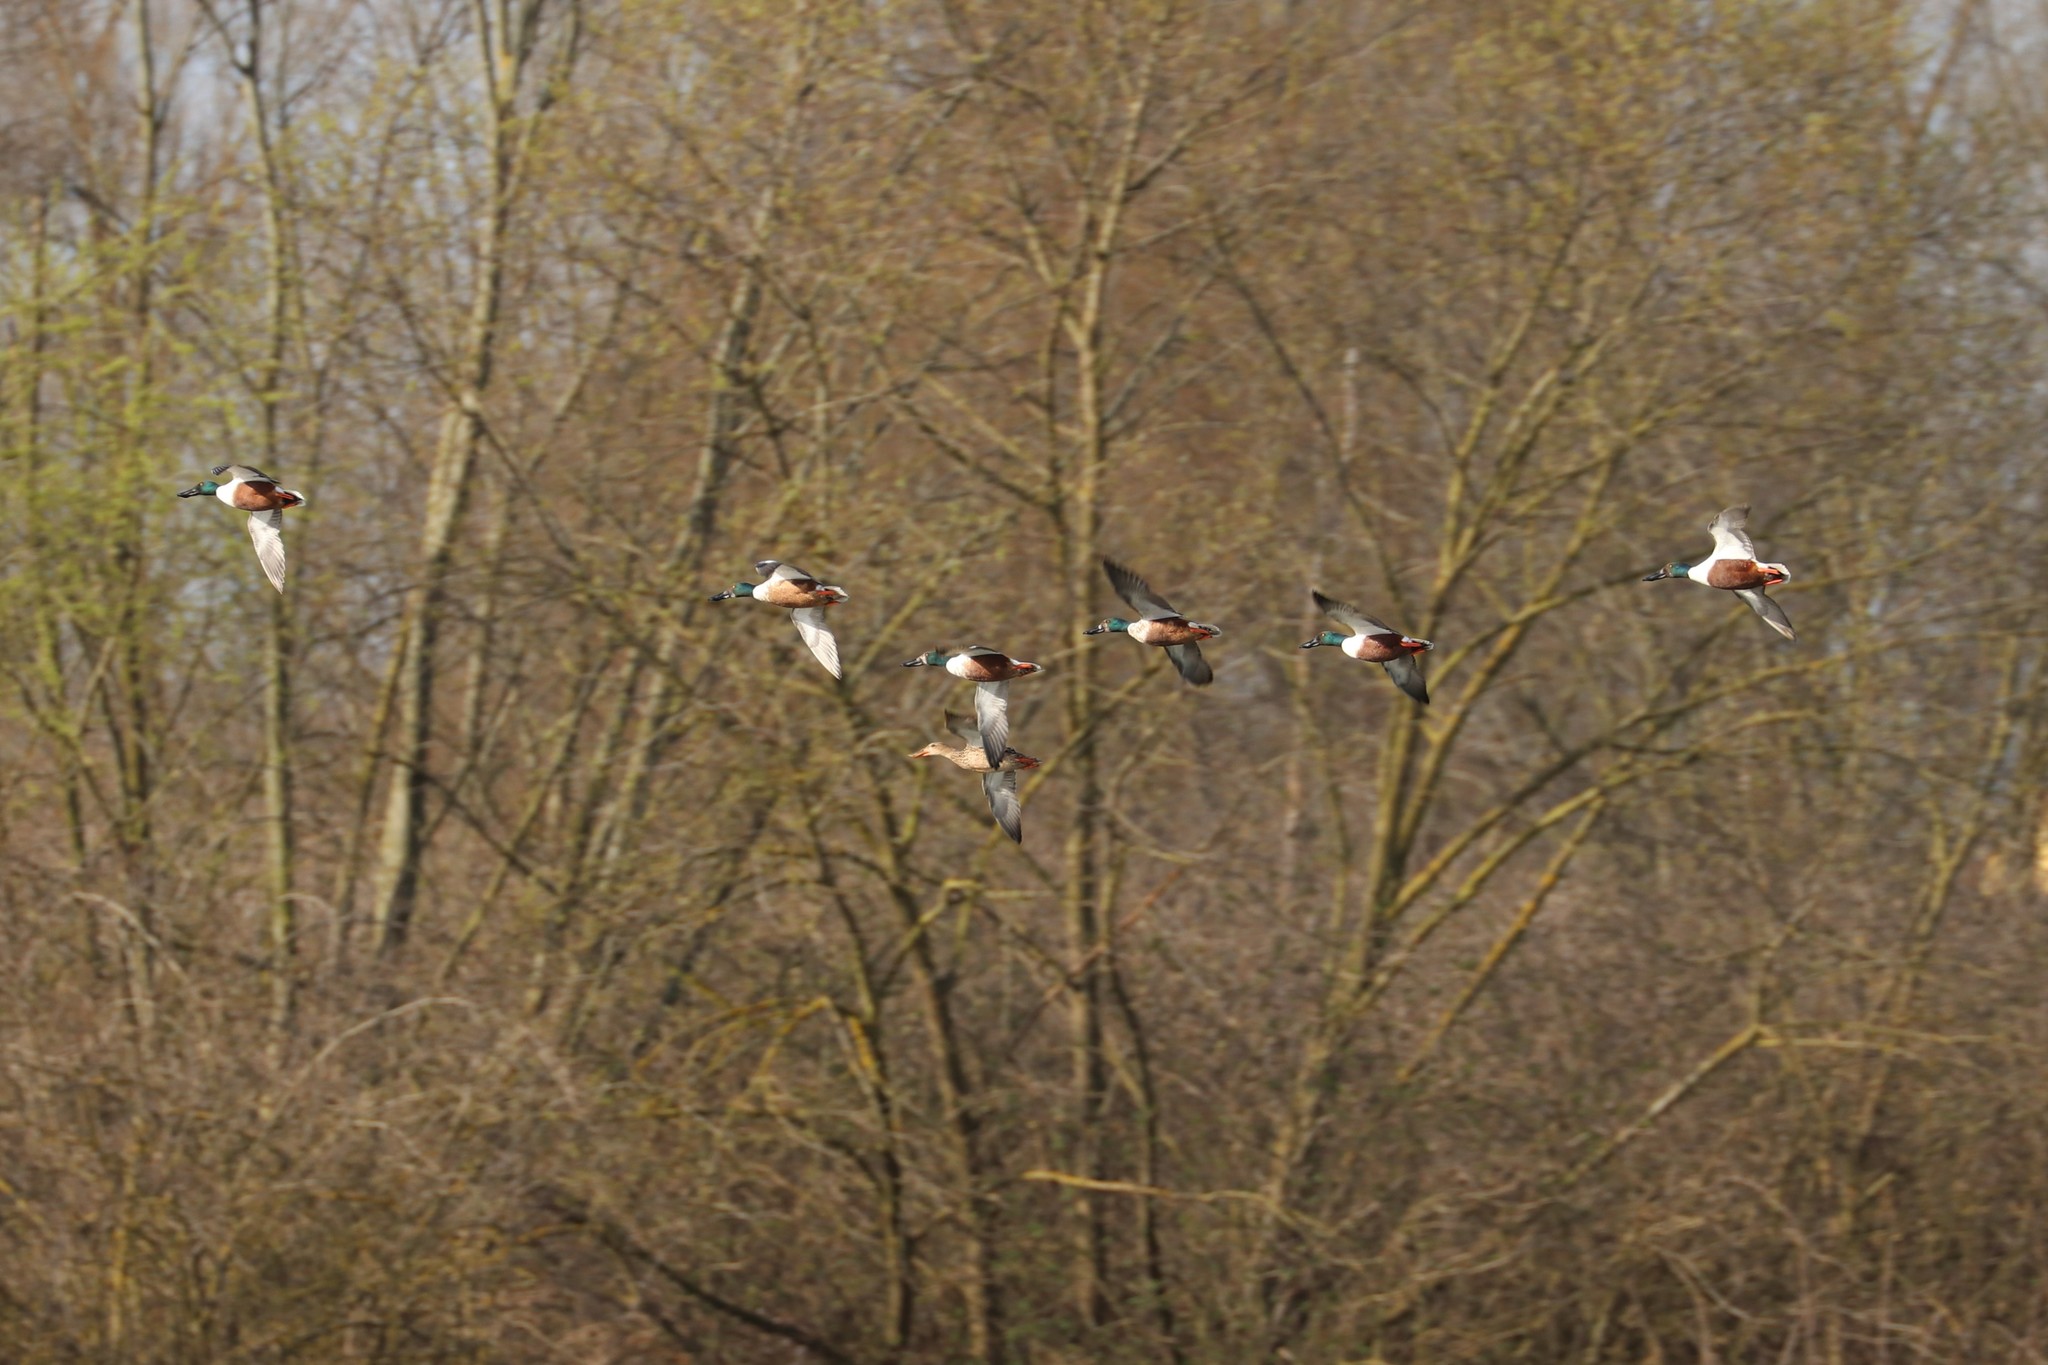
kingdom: Animalia
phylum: Chordata
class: Aves
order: Anseriformes
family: Anatidae
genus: Spatula
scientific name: Spatula clypeata
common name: Northern shoveler
